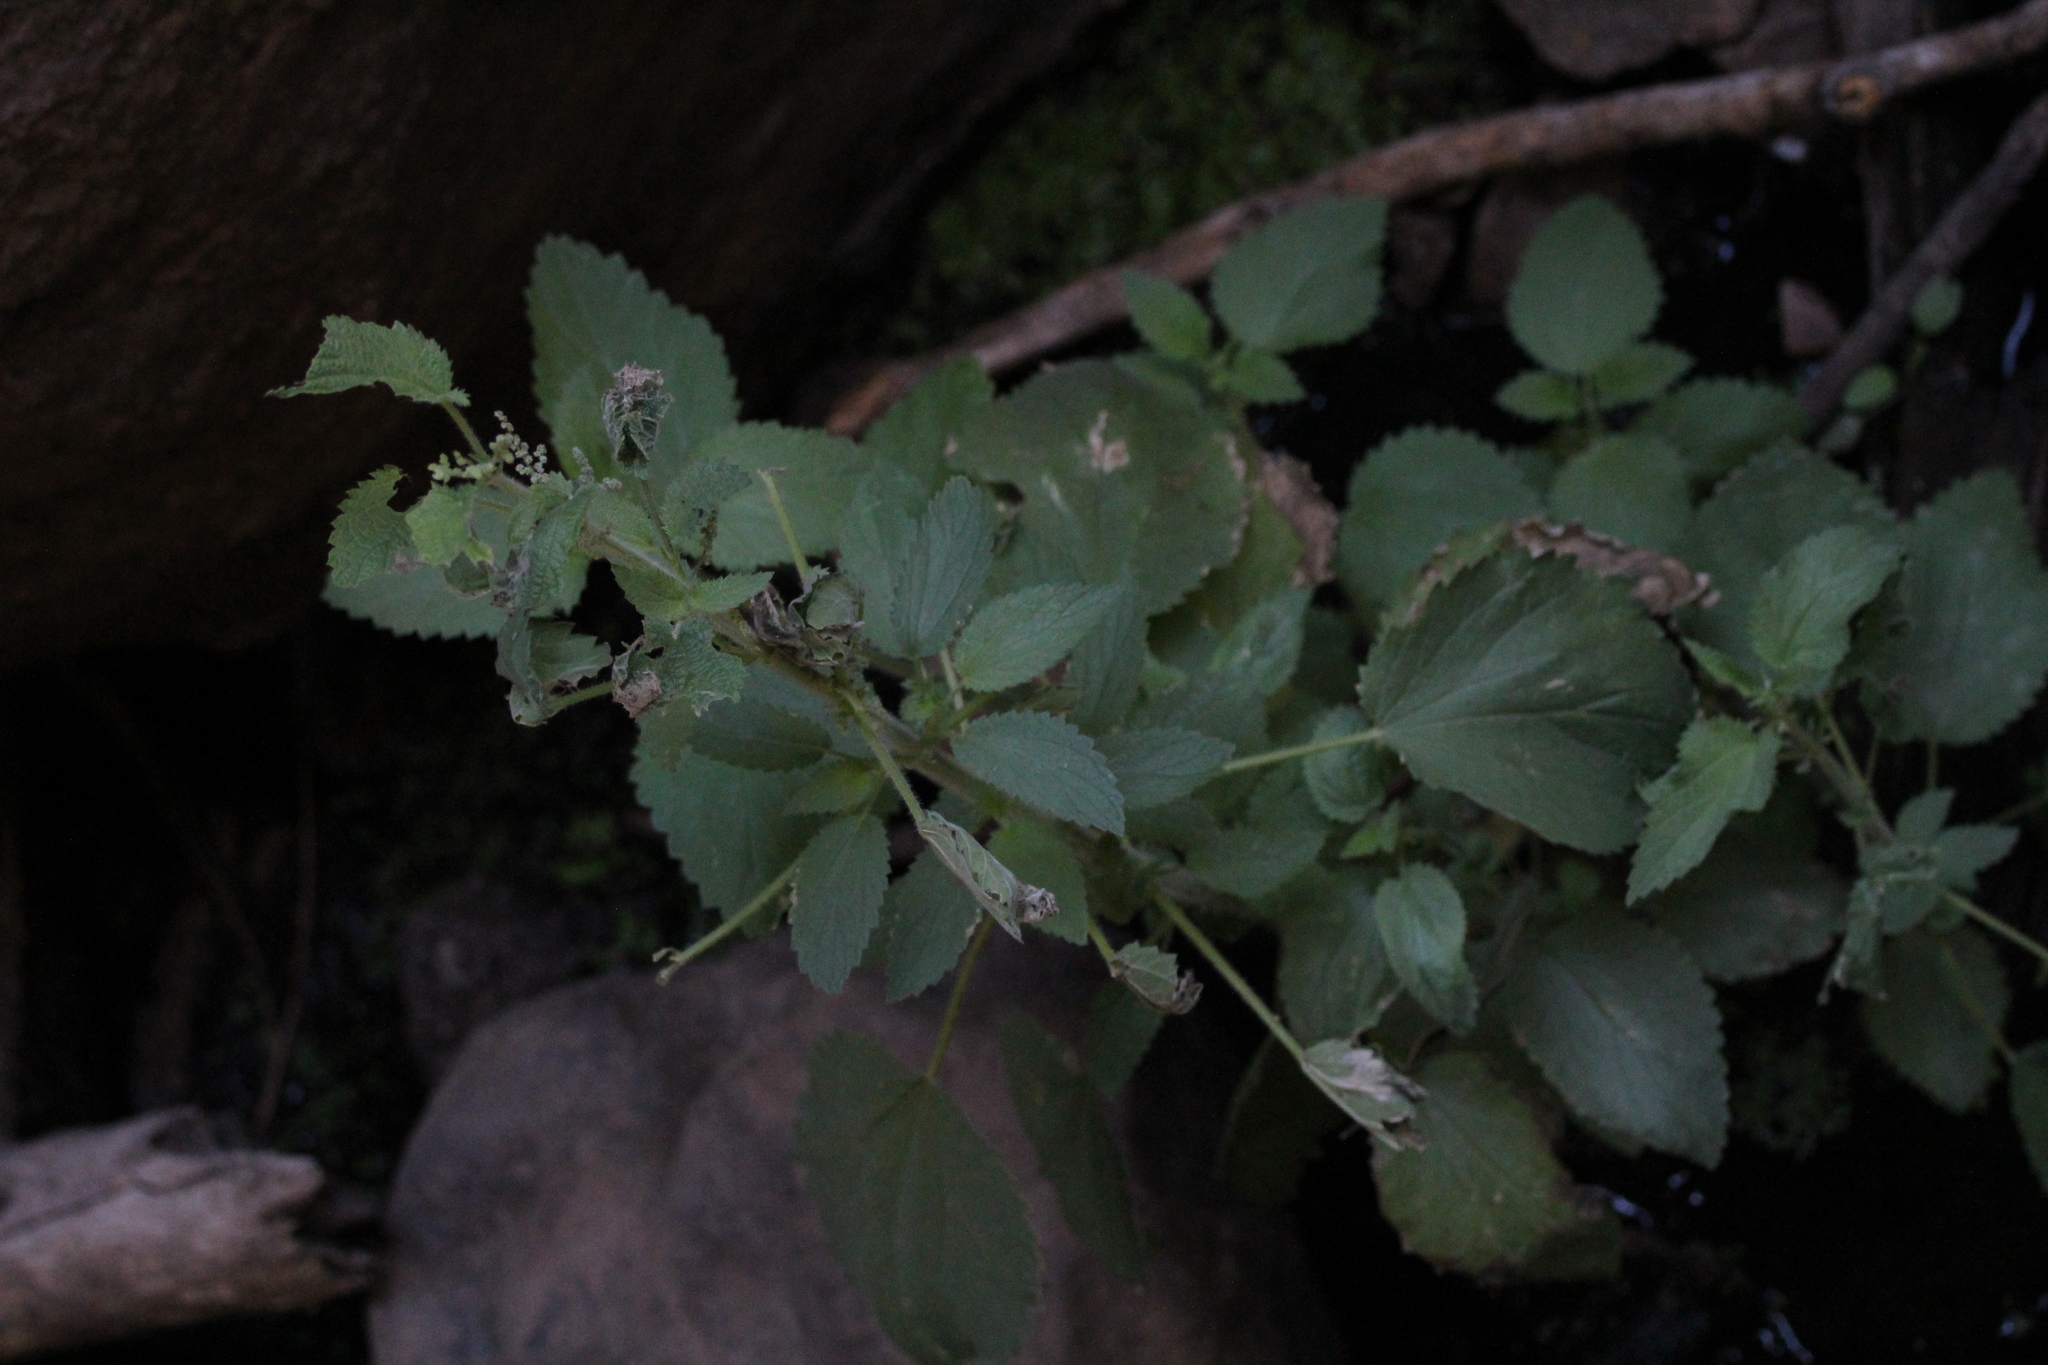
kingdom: Plantae
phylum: Tracheophyta
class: Magnoliopsida
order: Rosales
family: Urticaceae
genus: Urtica
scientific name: Urtica dioica
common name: Common nettle
